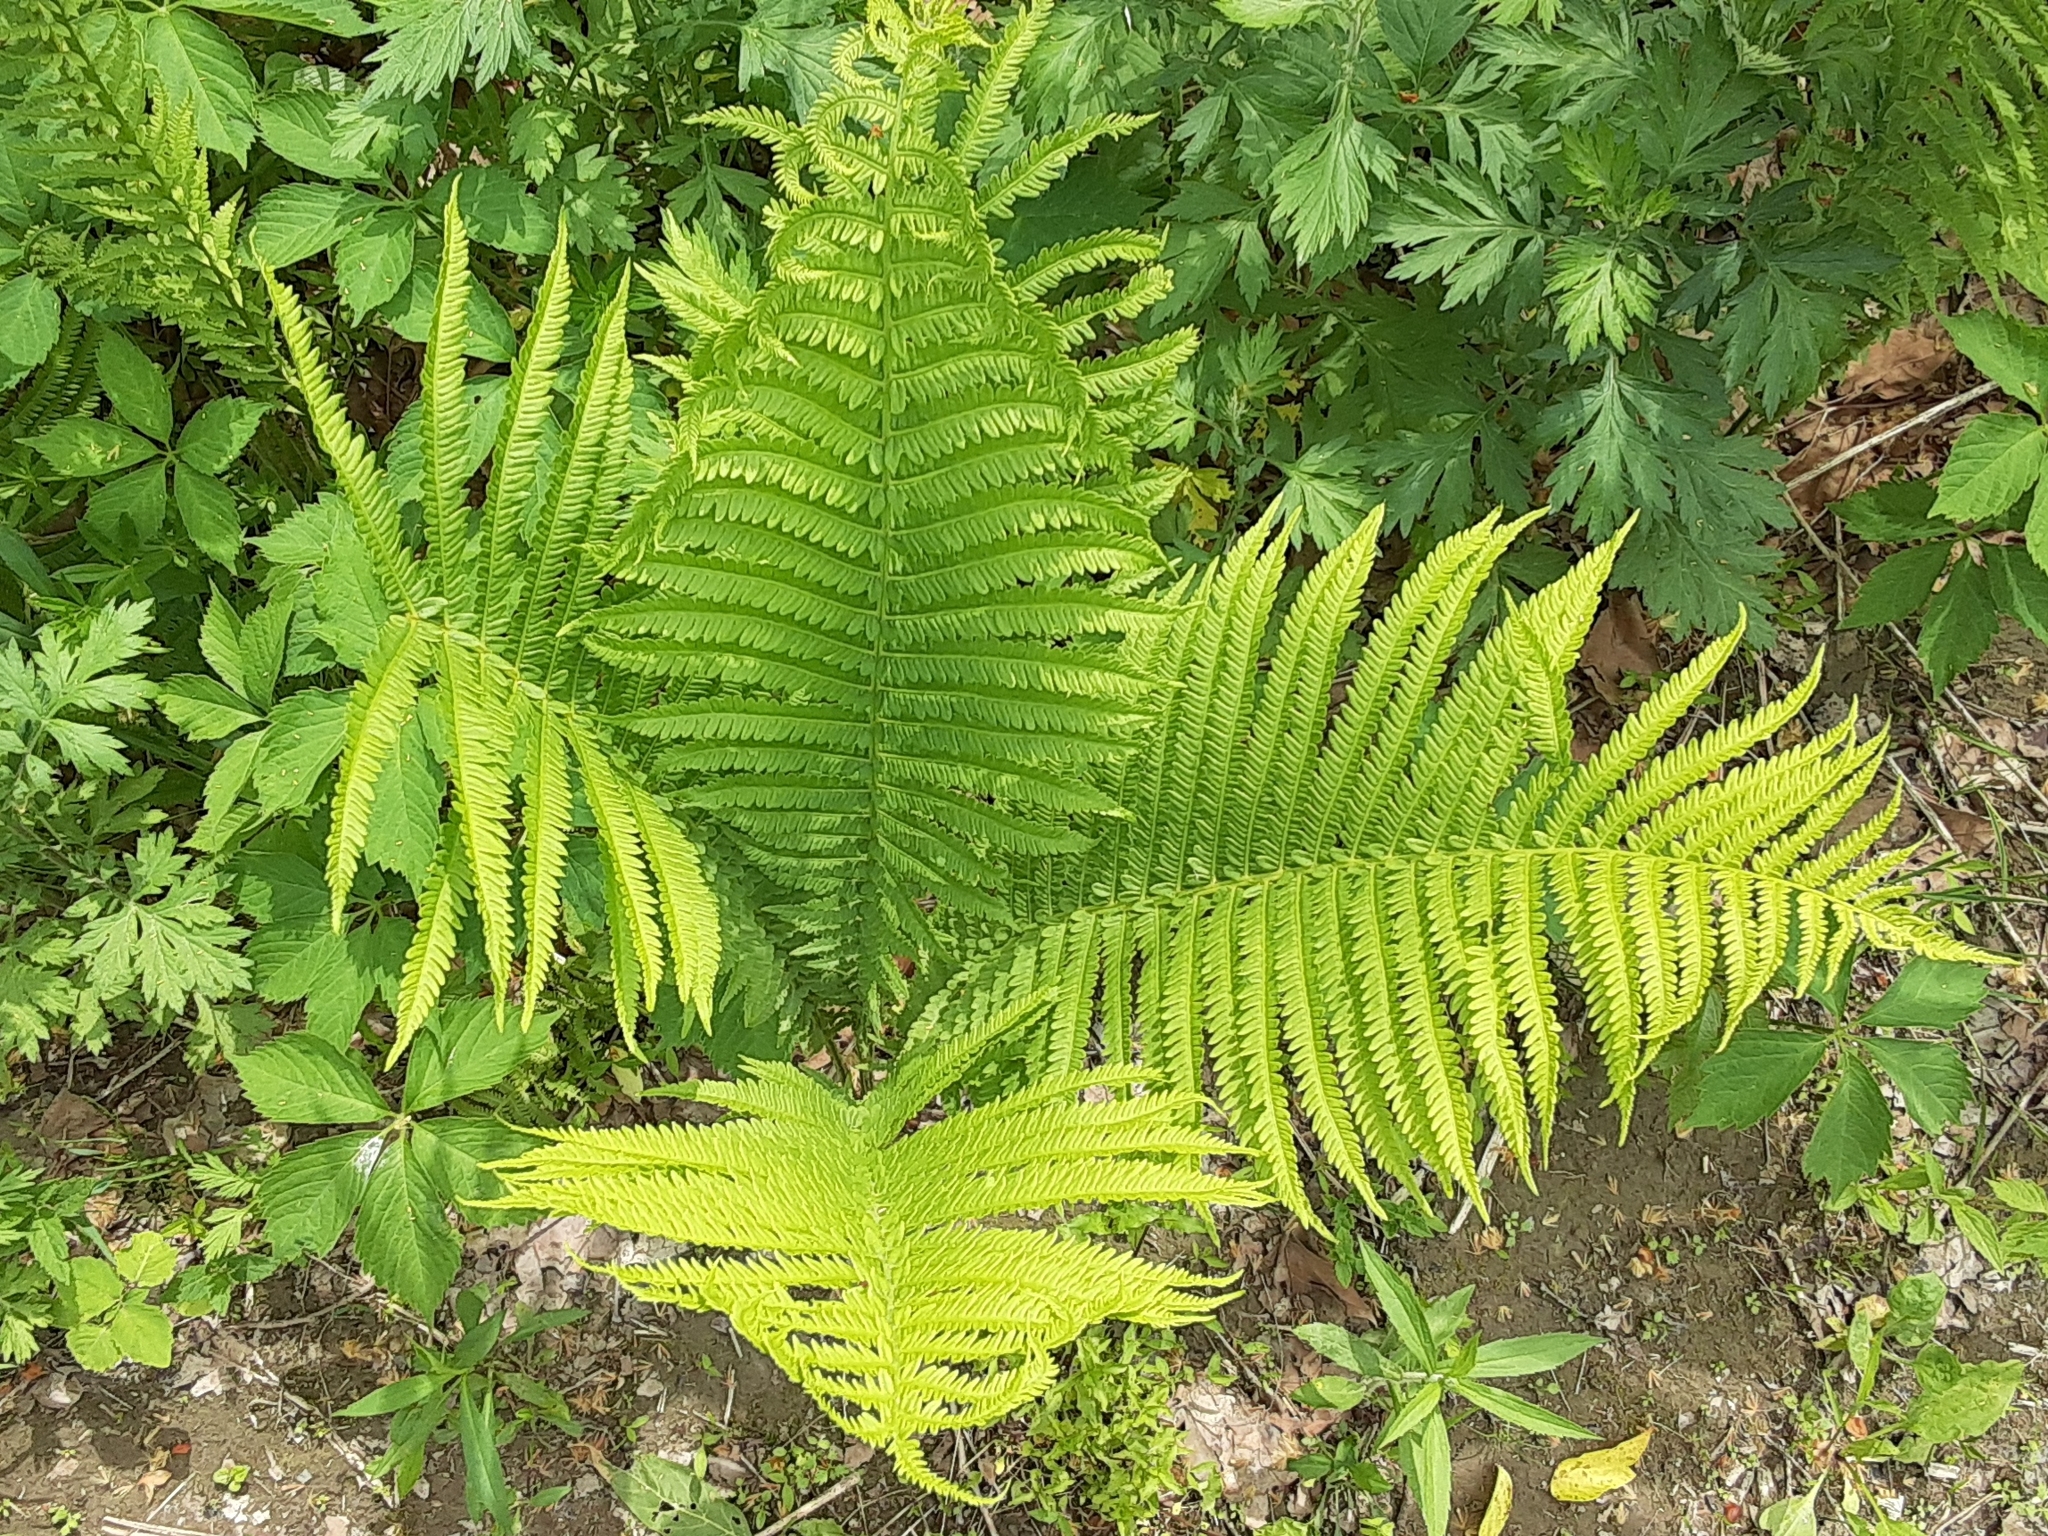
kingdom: Plantae
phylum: Tracheophyta
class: Polypodiopsida
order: Polypodiales
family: Onocleaceae
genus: Matteuccia
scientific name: Matteuccia struthiopteris
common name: Ostrich fern
